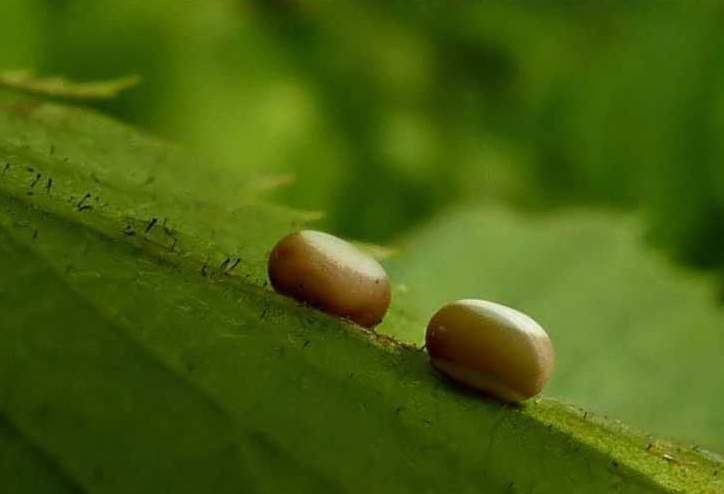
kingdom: Animalia
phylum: Arthropoda
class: Insecta
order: Lepidoptera
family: Saturniidae
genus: Antheraea
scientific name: Antheraea polyphemus
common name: Polyphemus moth
